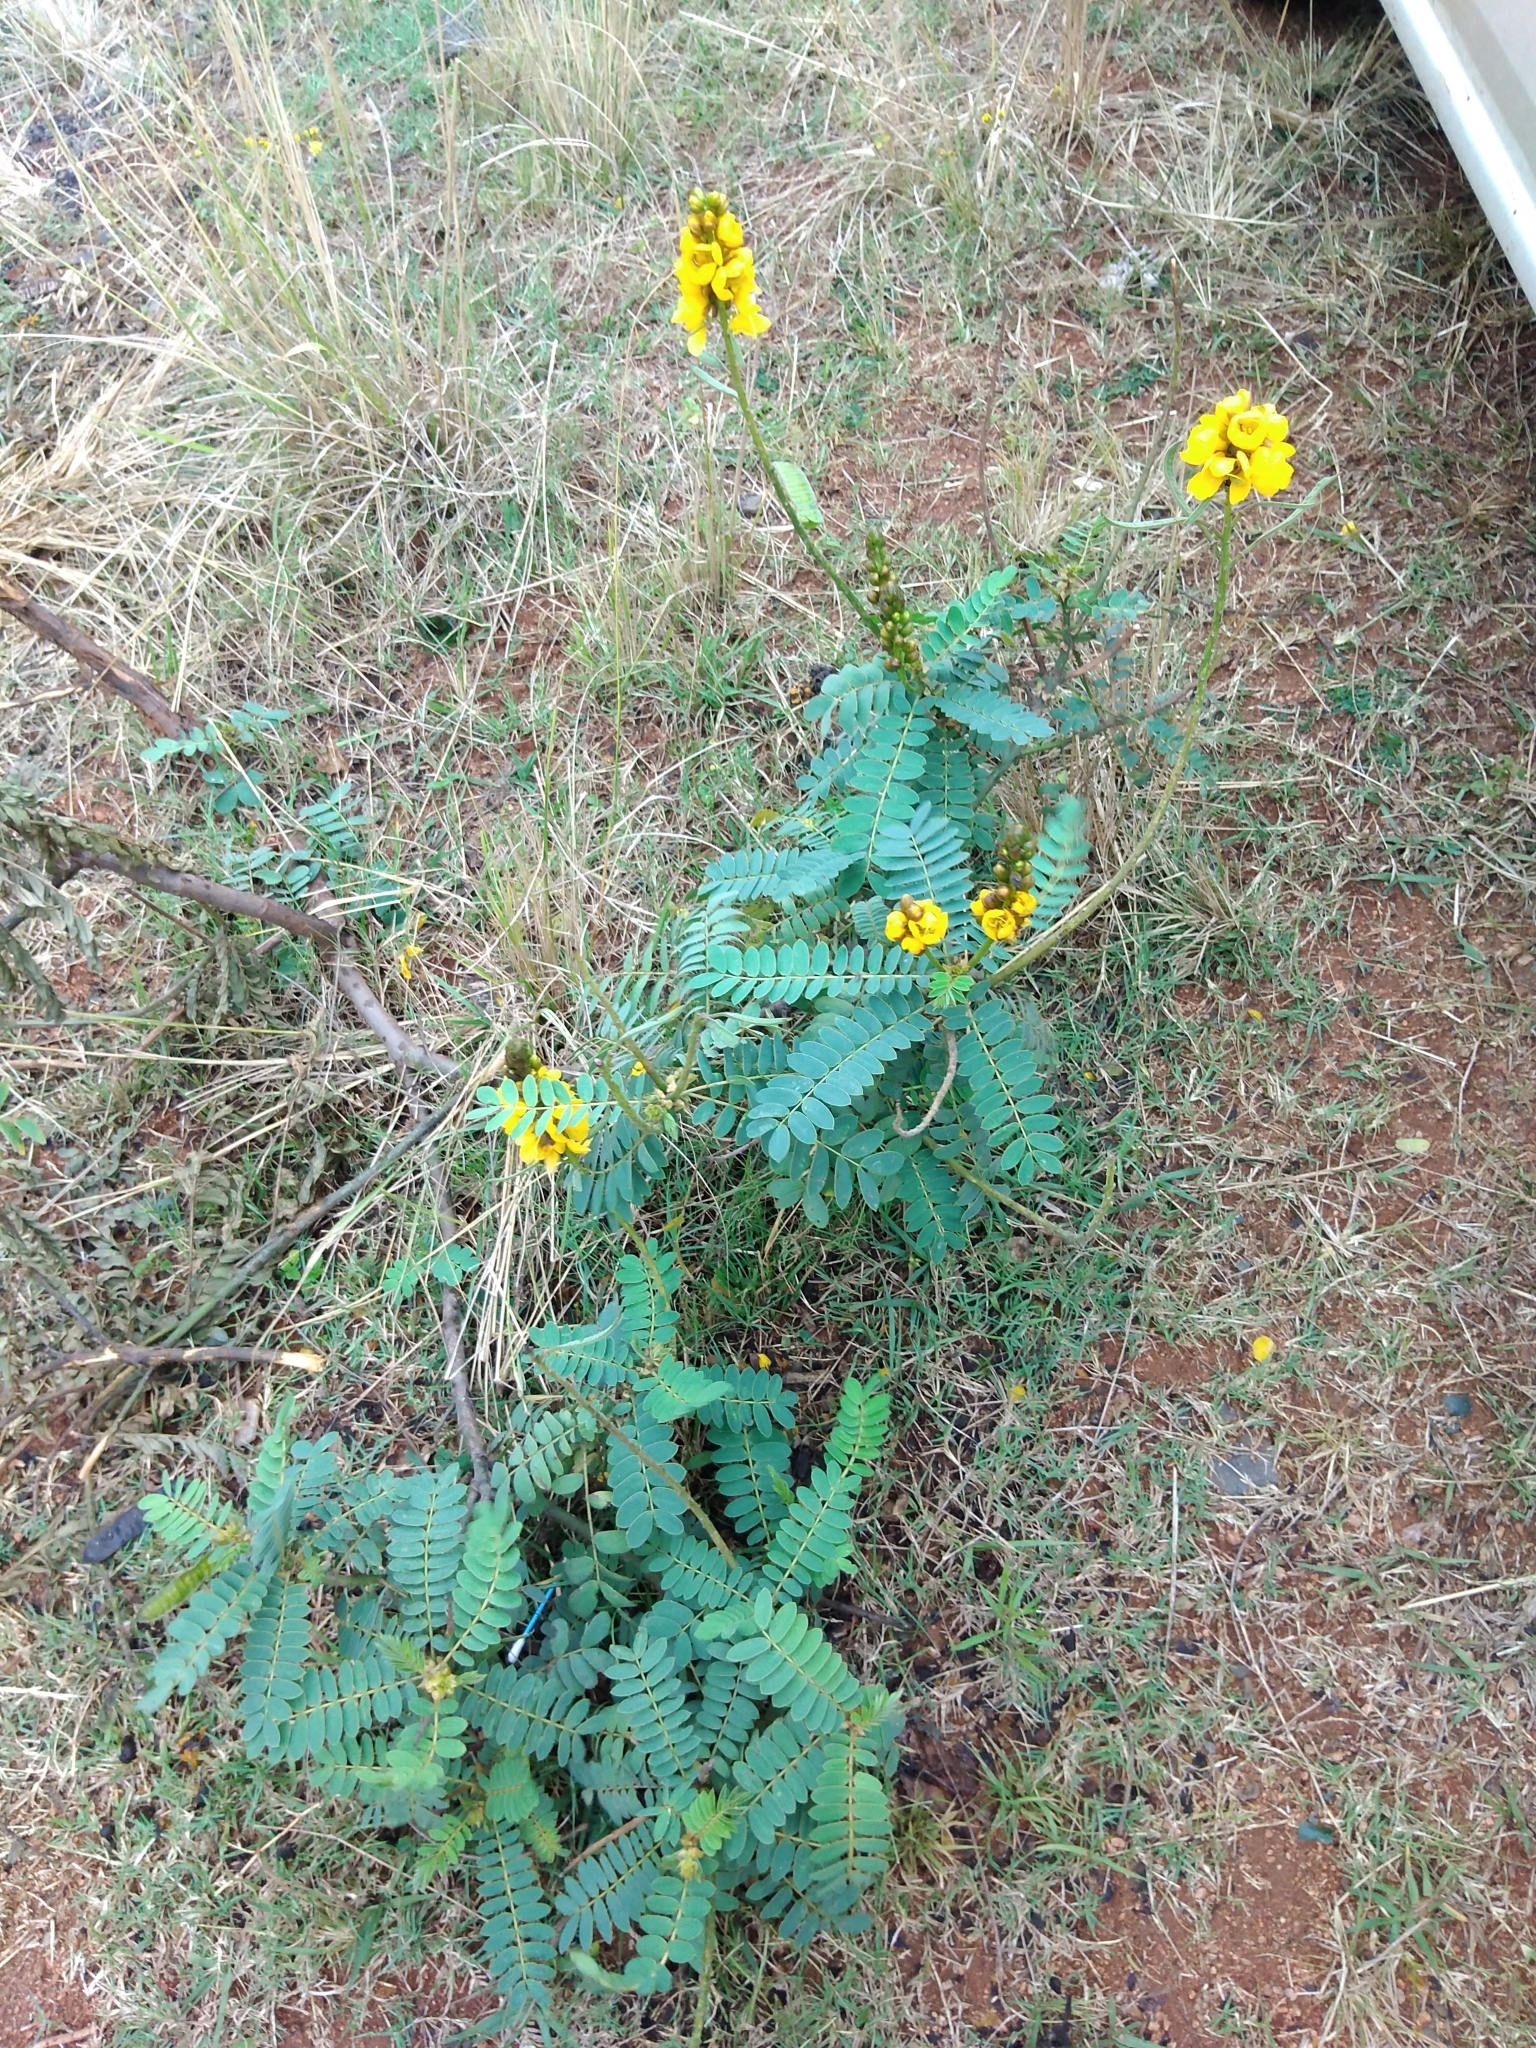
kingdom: Plantae
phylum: Tracheophyta
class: Magnoliopsida
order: Fabales
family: Fabaceae
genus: Senna
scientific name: Senna didymobotrya
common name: African senna
